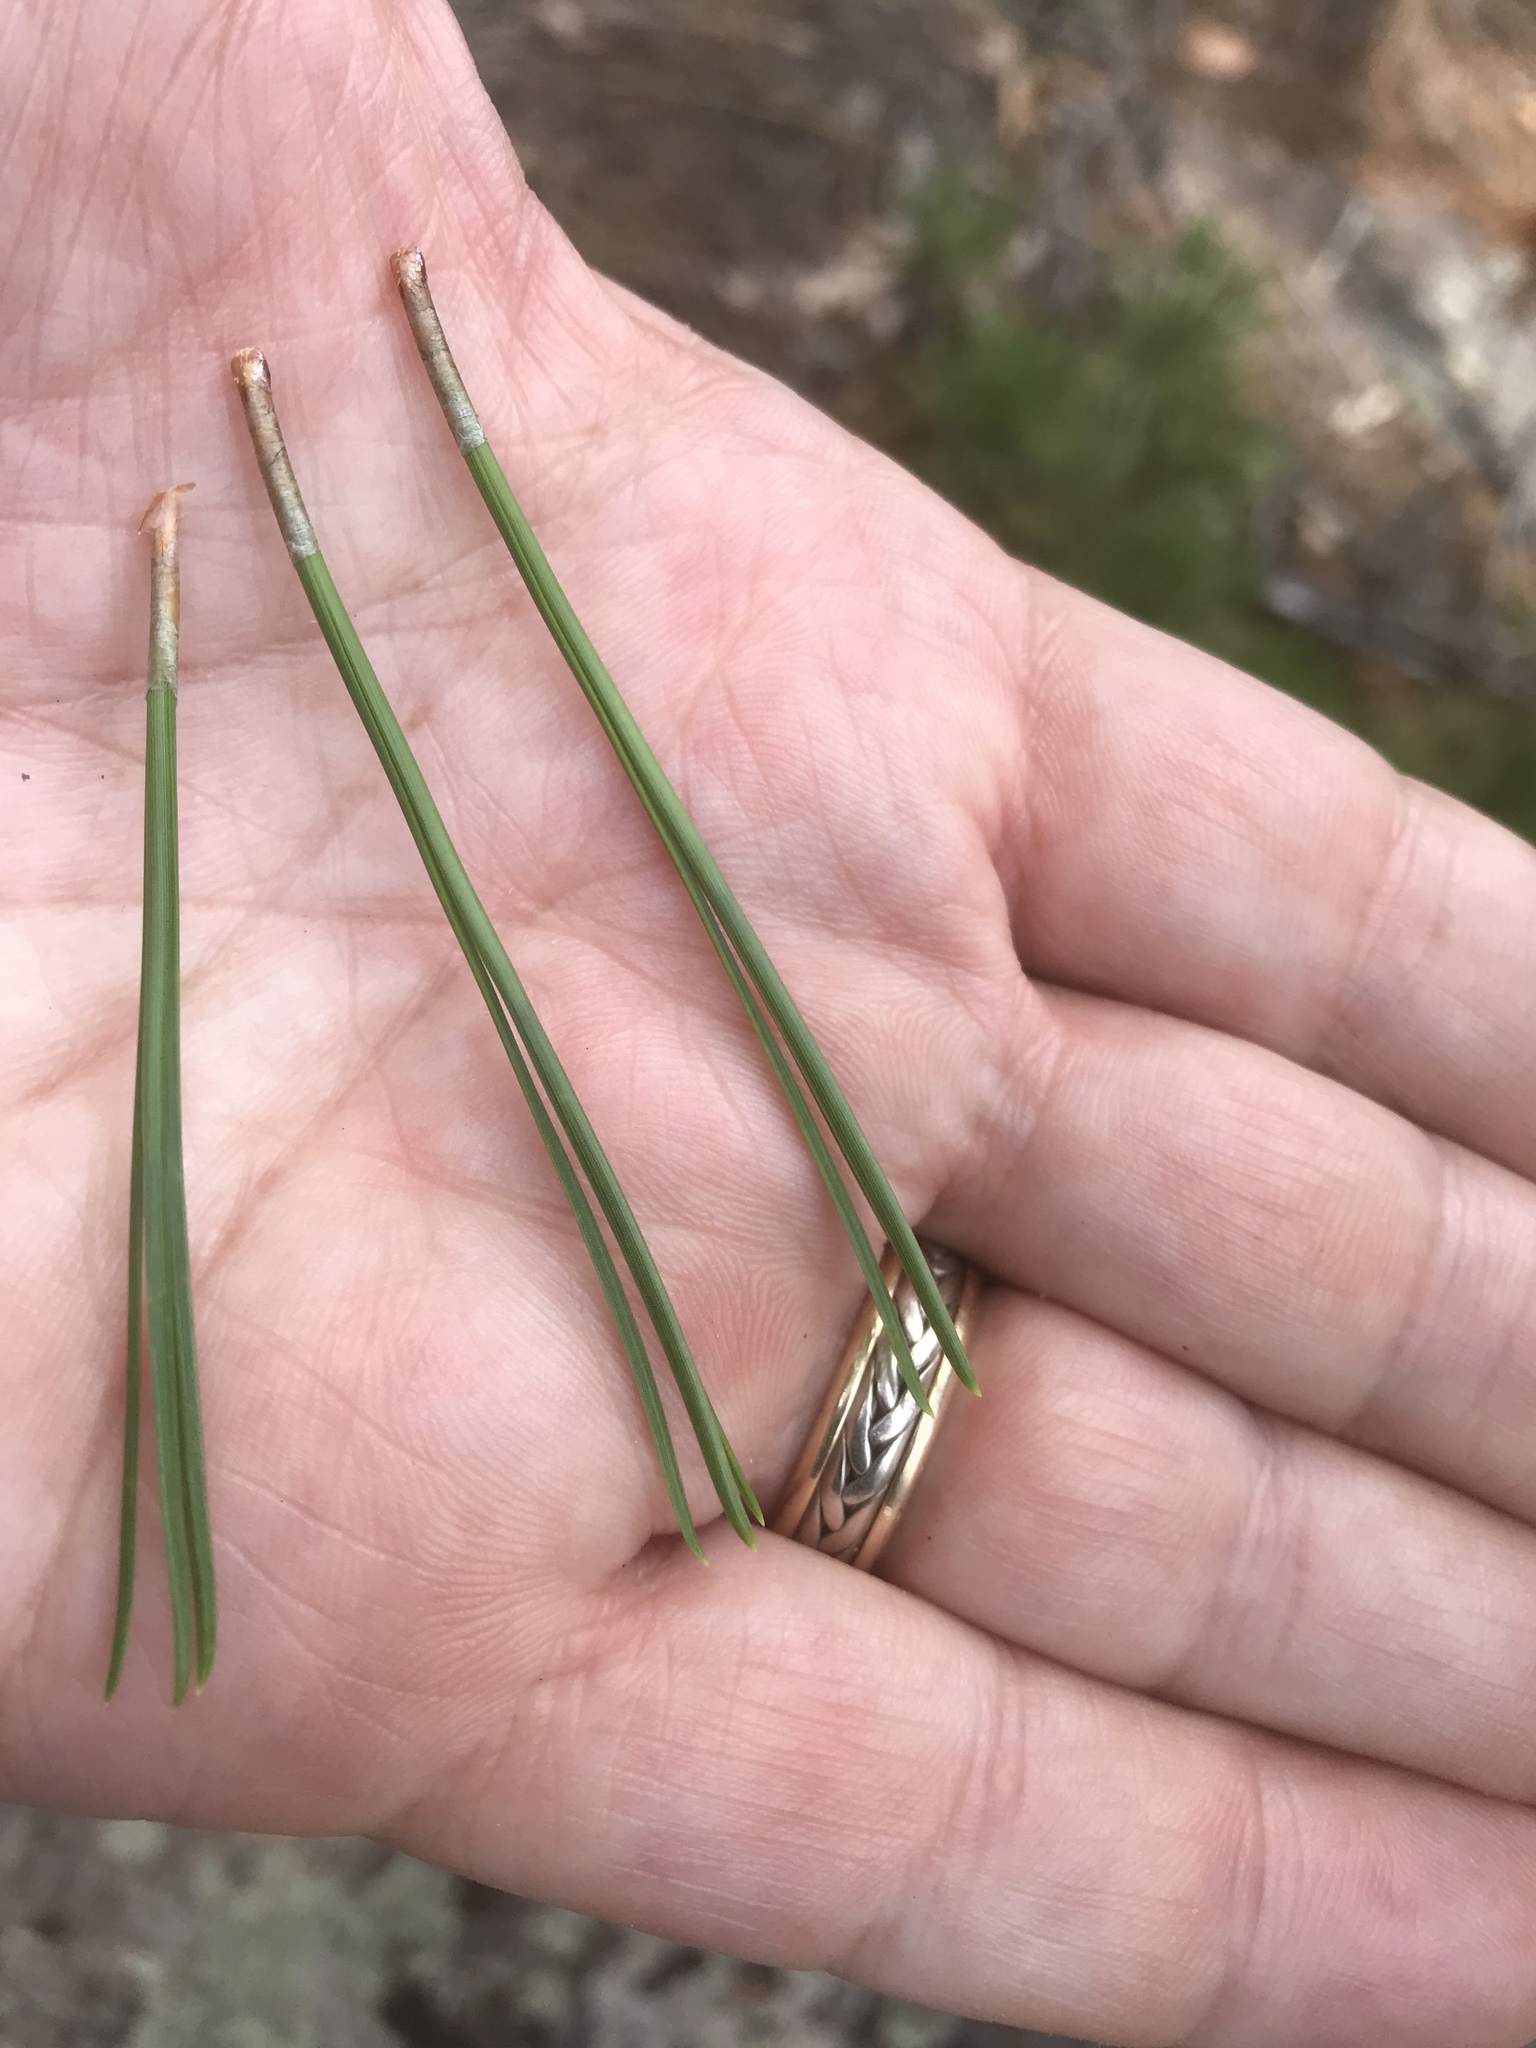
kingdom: Plantae
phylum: Tracheophyta
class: Pinopsida
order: Pinales
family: Pinaceae
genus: Pinus
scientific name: Pinus rigida
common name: Pitch pine
